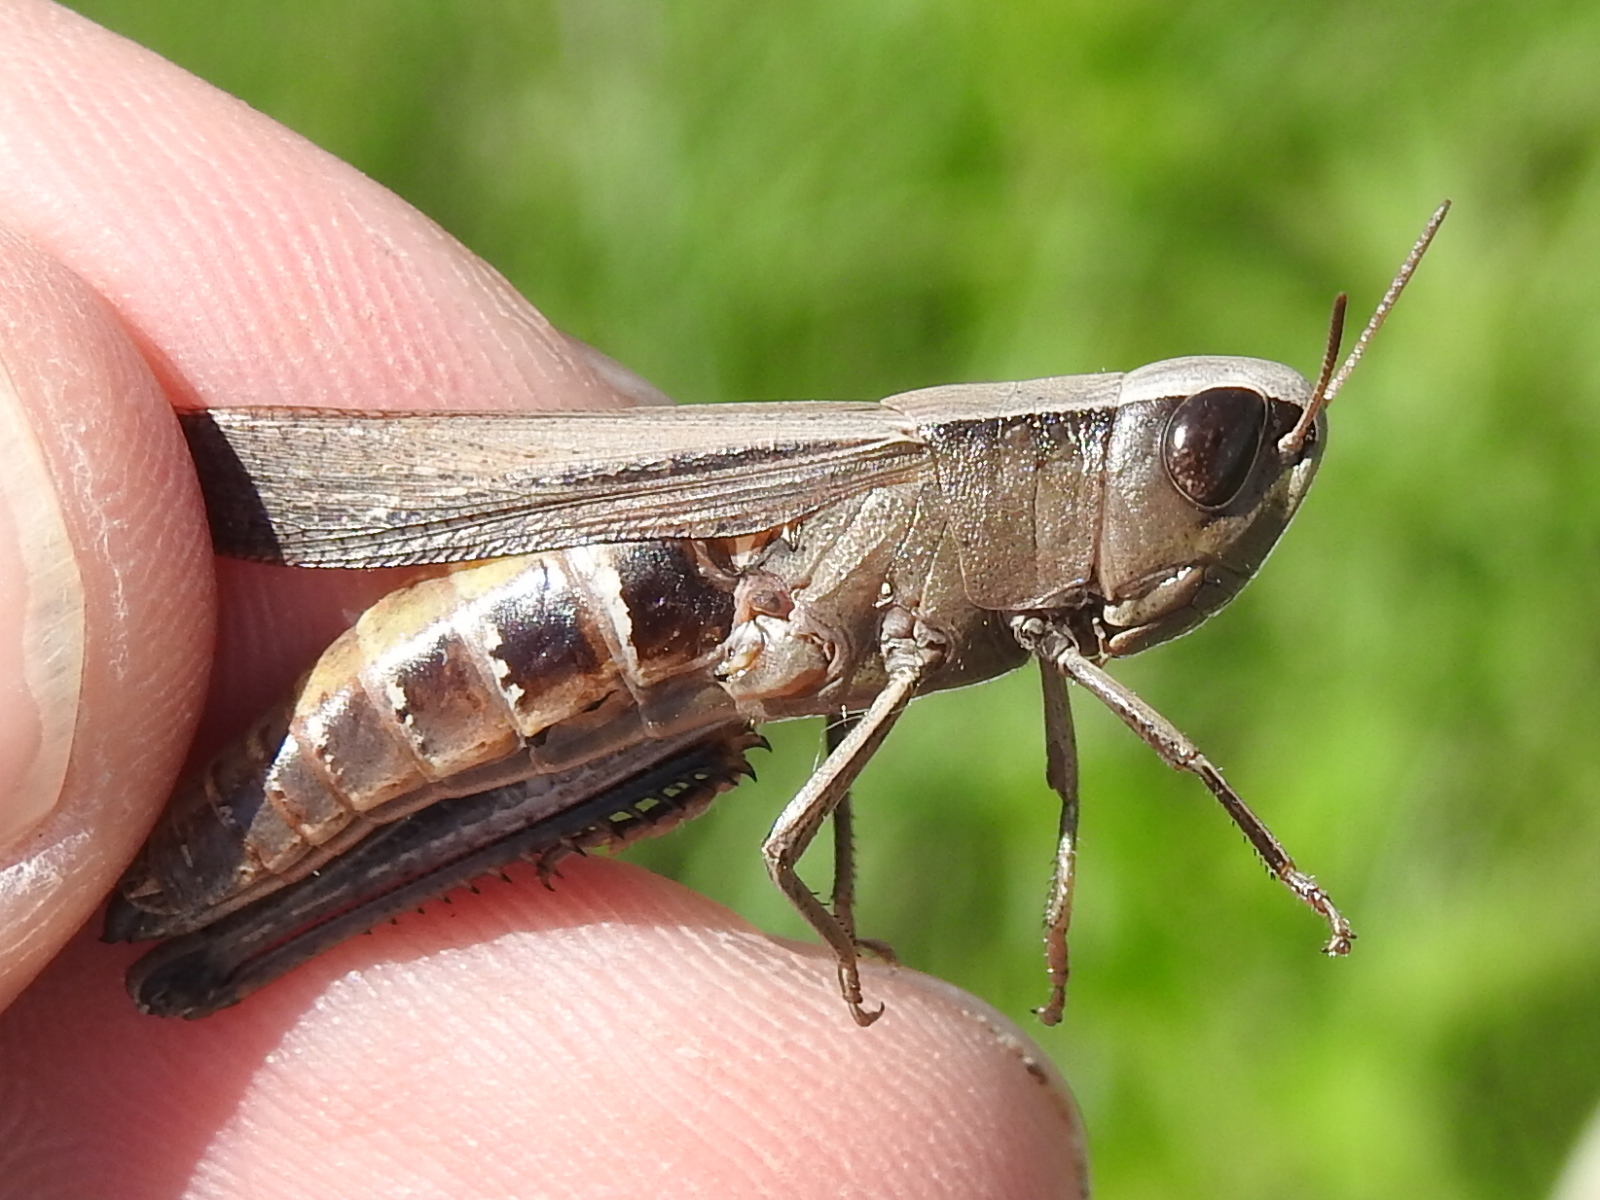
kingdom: Animalia
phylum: Arthropoda
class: Insecta
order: Orthoptera
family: Acrididae
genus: Amblytropidia
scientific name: Amblytropidia mysteca
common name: Brown winter grasshopper
